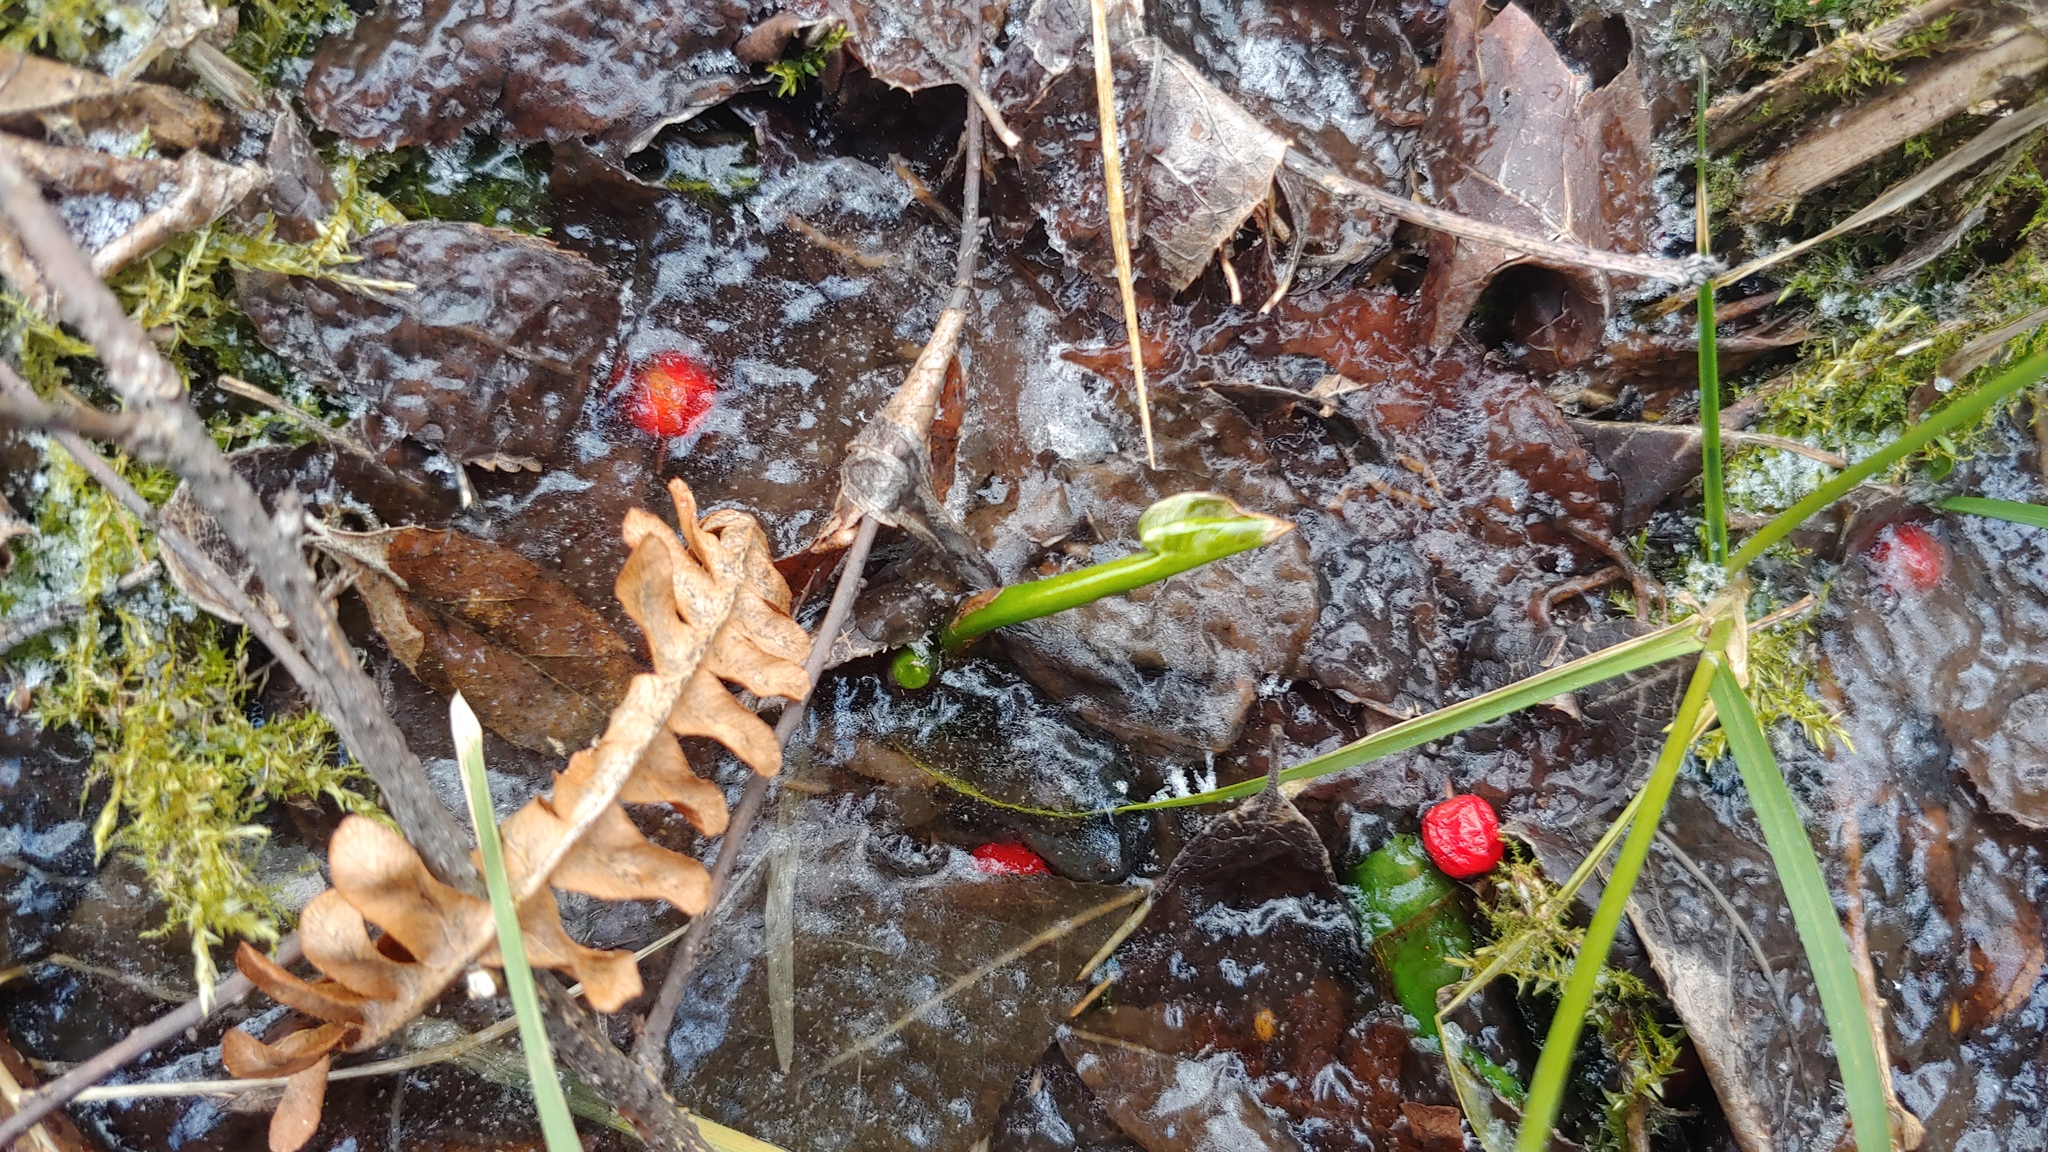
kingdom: Plantae
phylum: Tracheophyta
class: Liliopsida
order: Alismatales
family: Araceae
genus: Calla
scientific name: Calla palustris
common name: Bog arum
